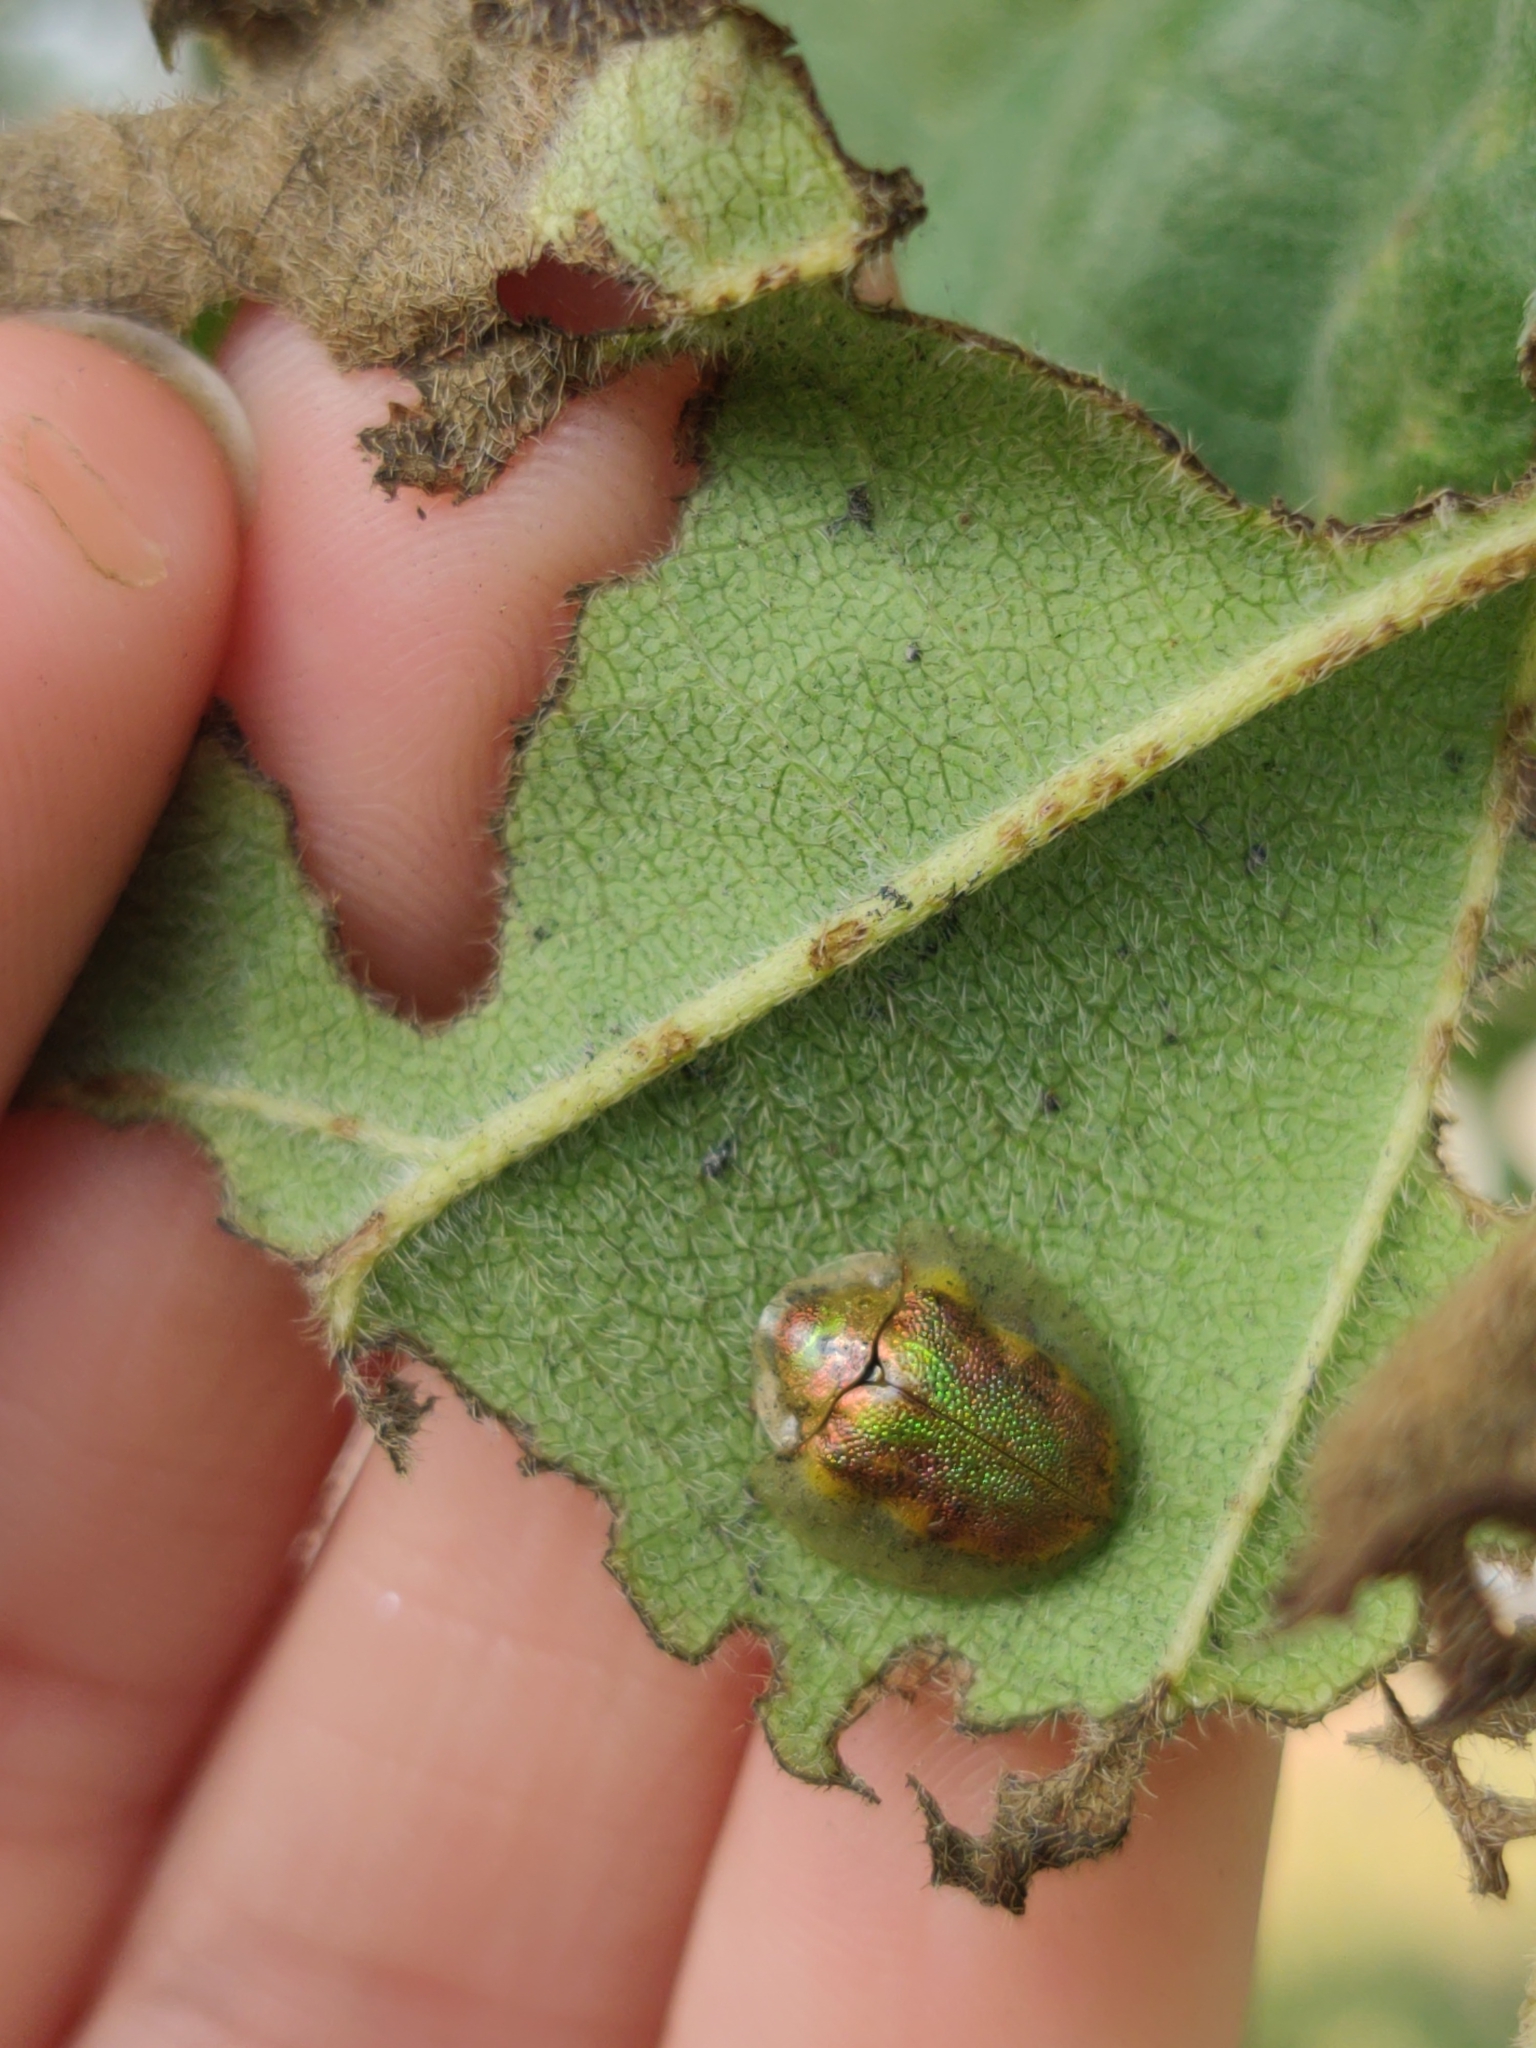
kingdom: Animalia
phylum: Arthropoda
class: Insecta
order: Coleoptera
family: Chrysomelidae
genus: Eurypepla
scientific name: Eurypepla calochroma
